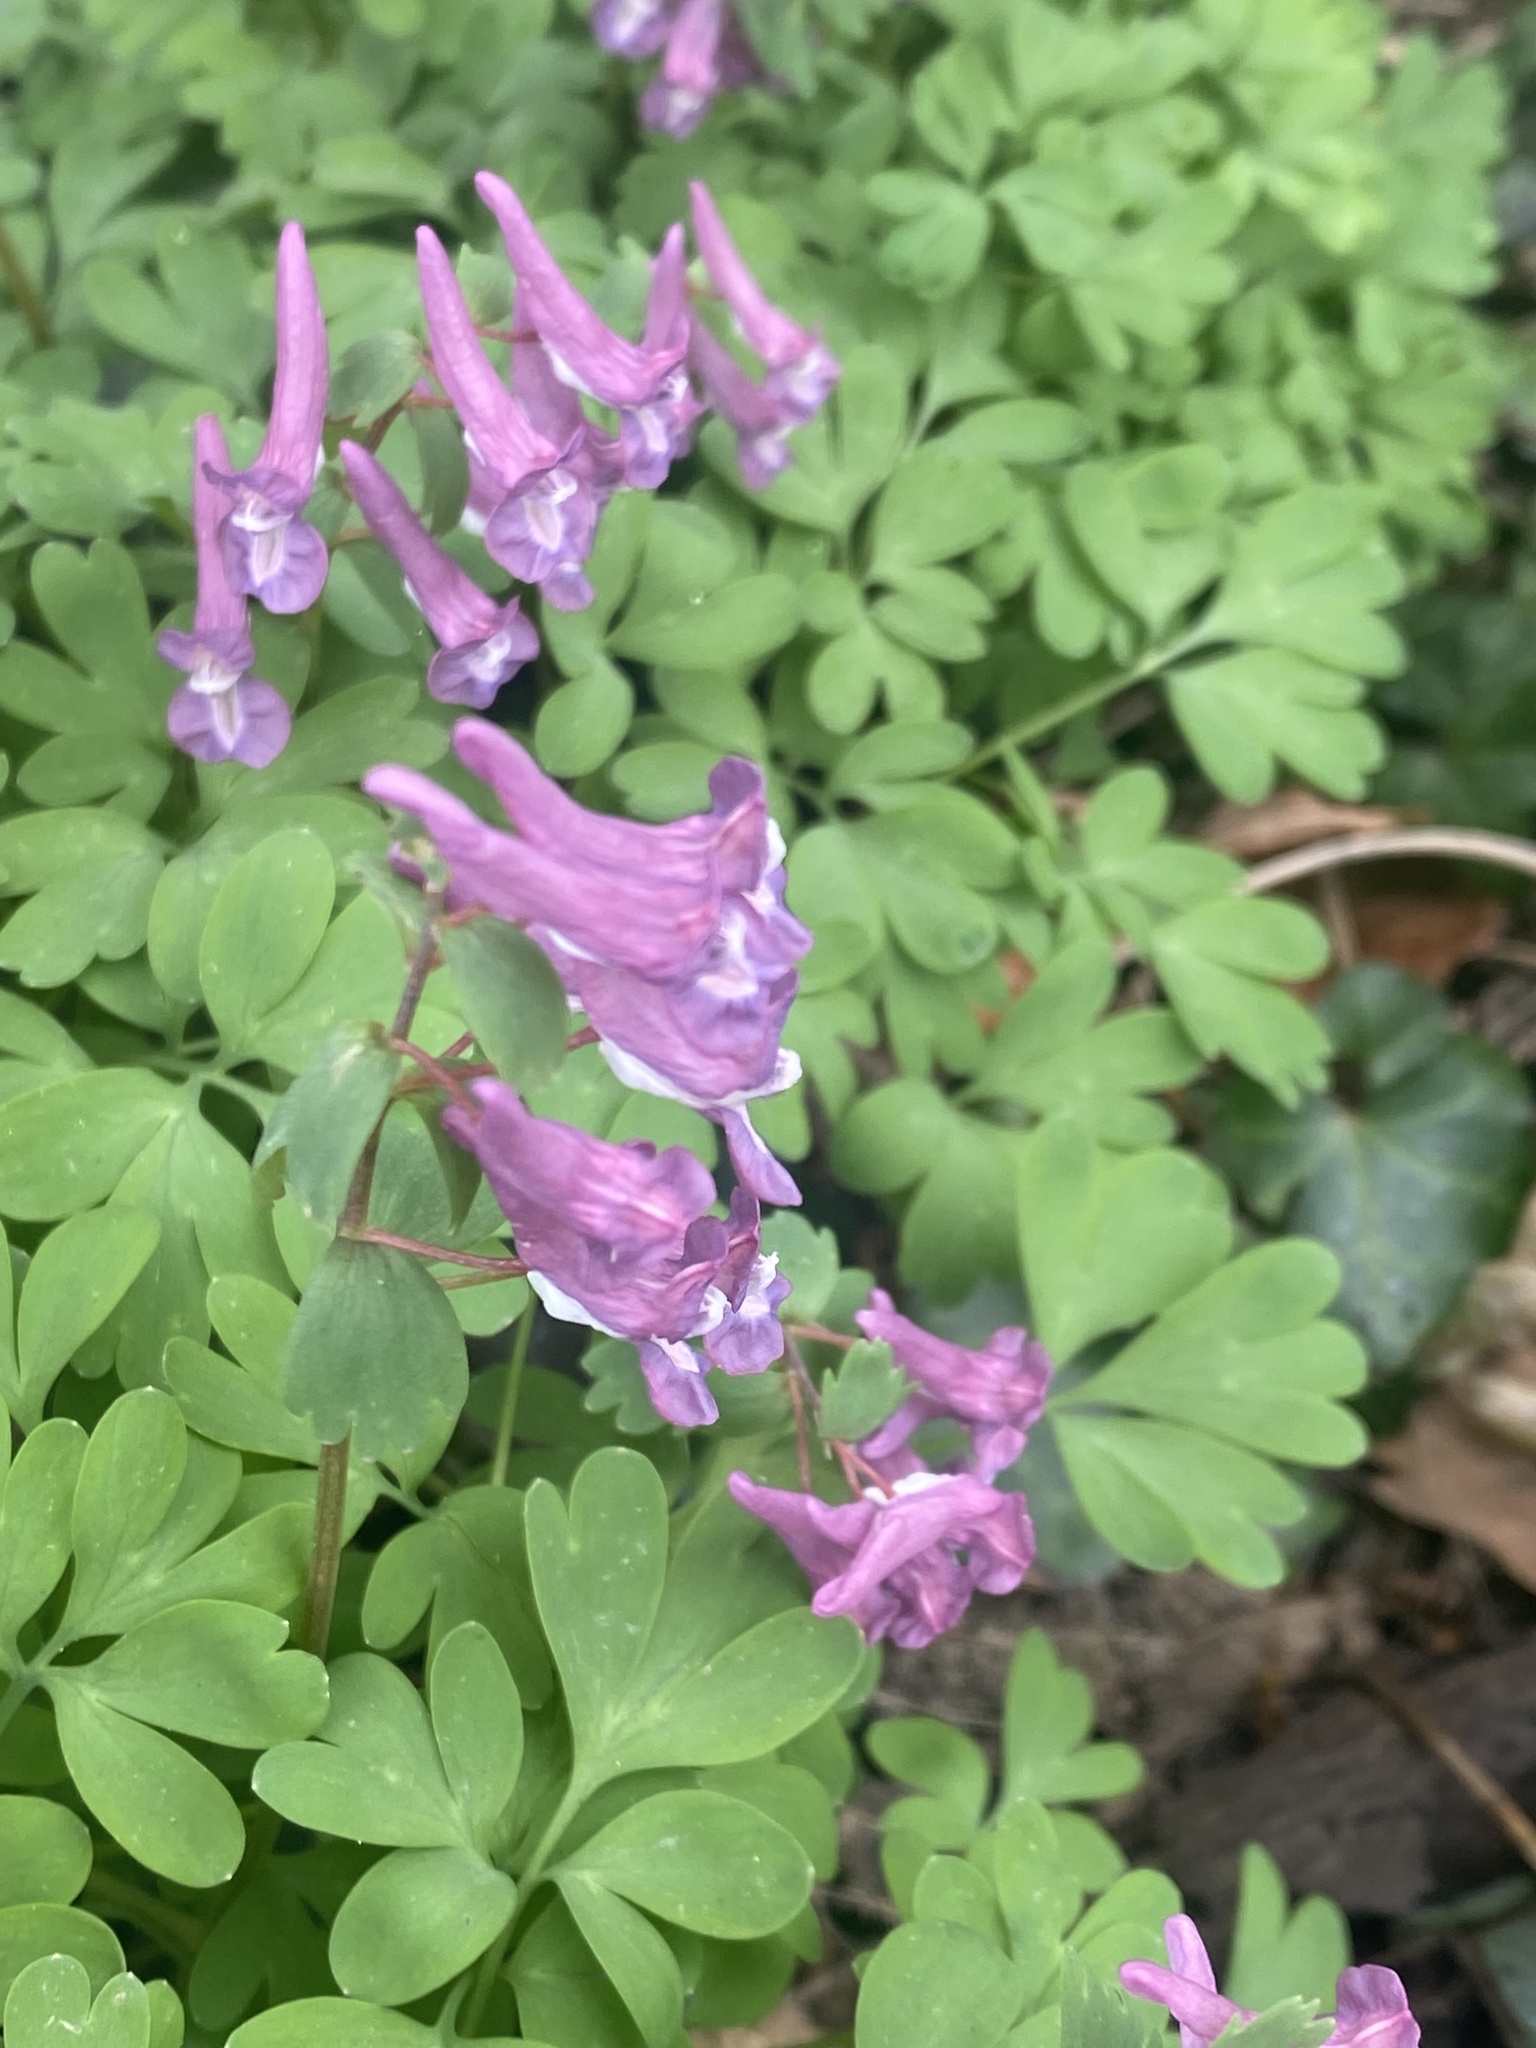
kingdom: Plantae
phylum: Tracheophyta
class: Magnoliopsida
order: Ranunculales
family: Papaveraceae
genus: Corydalis
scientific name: Corydalis solida
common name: Bird-in-a-bush
